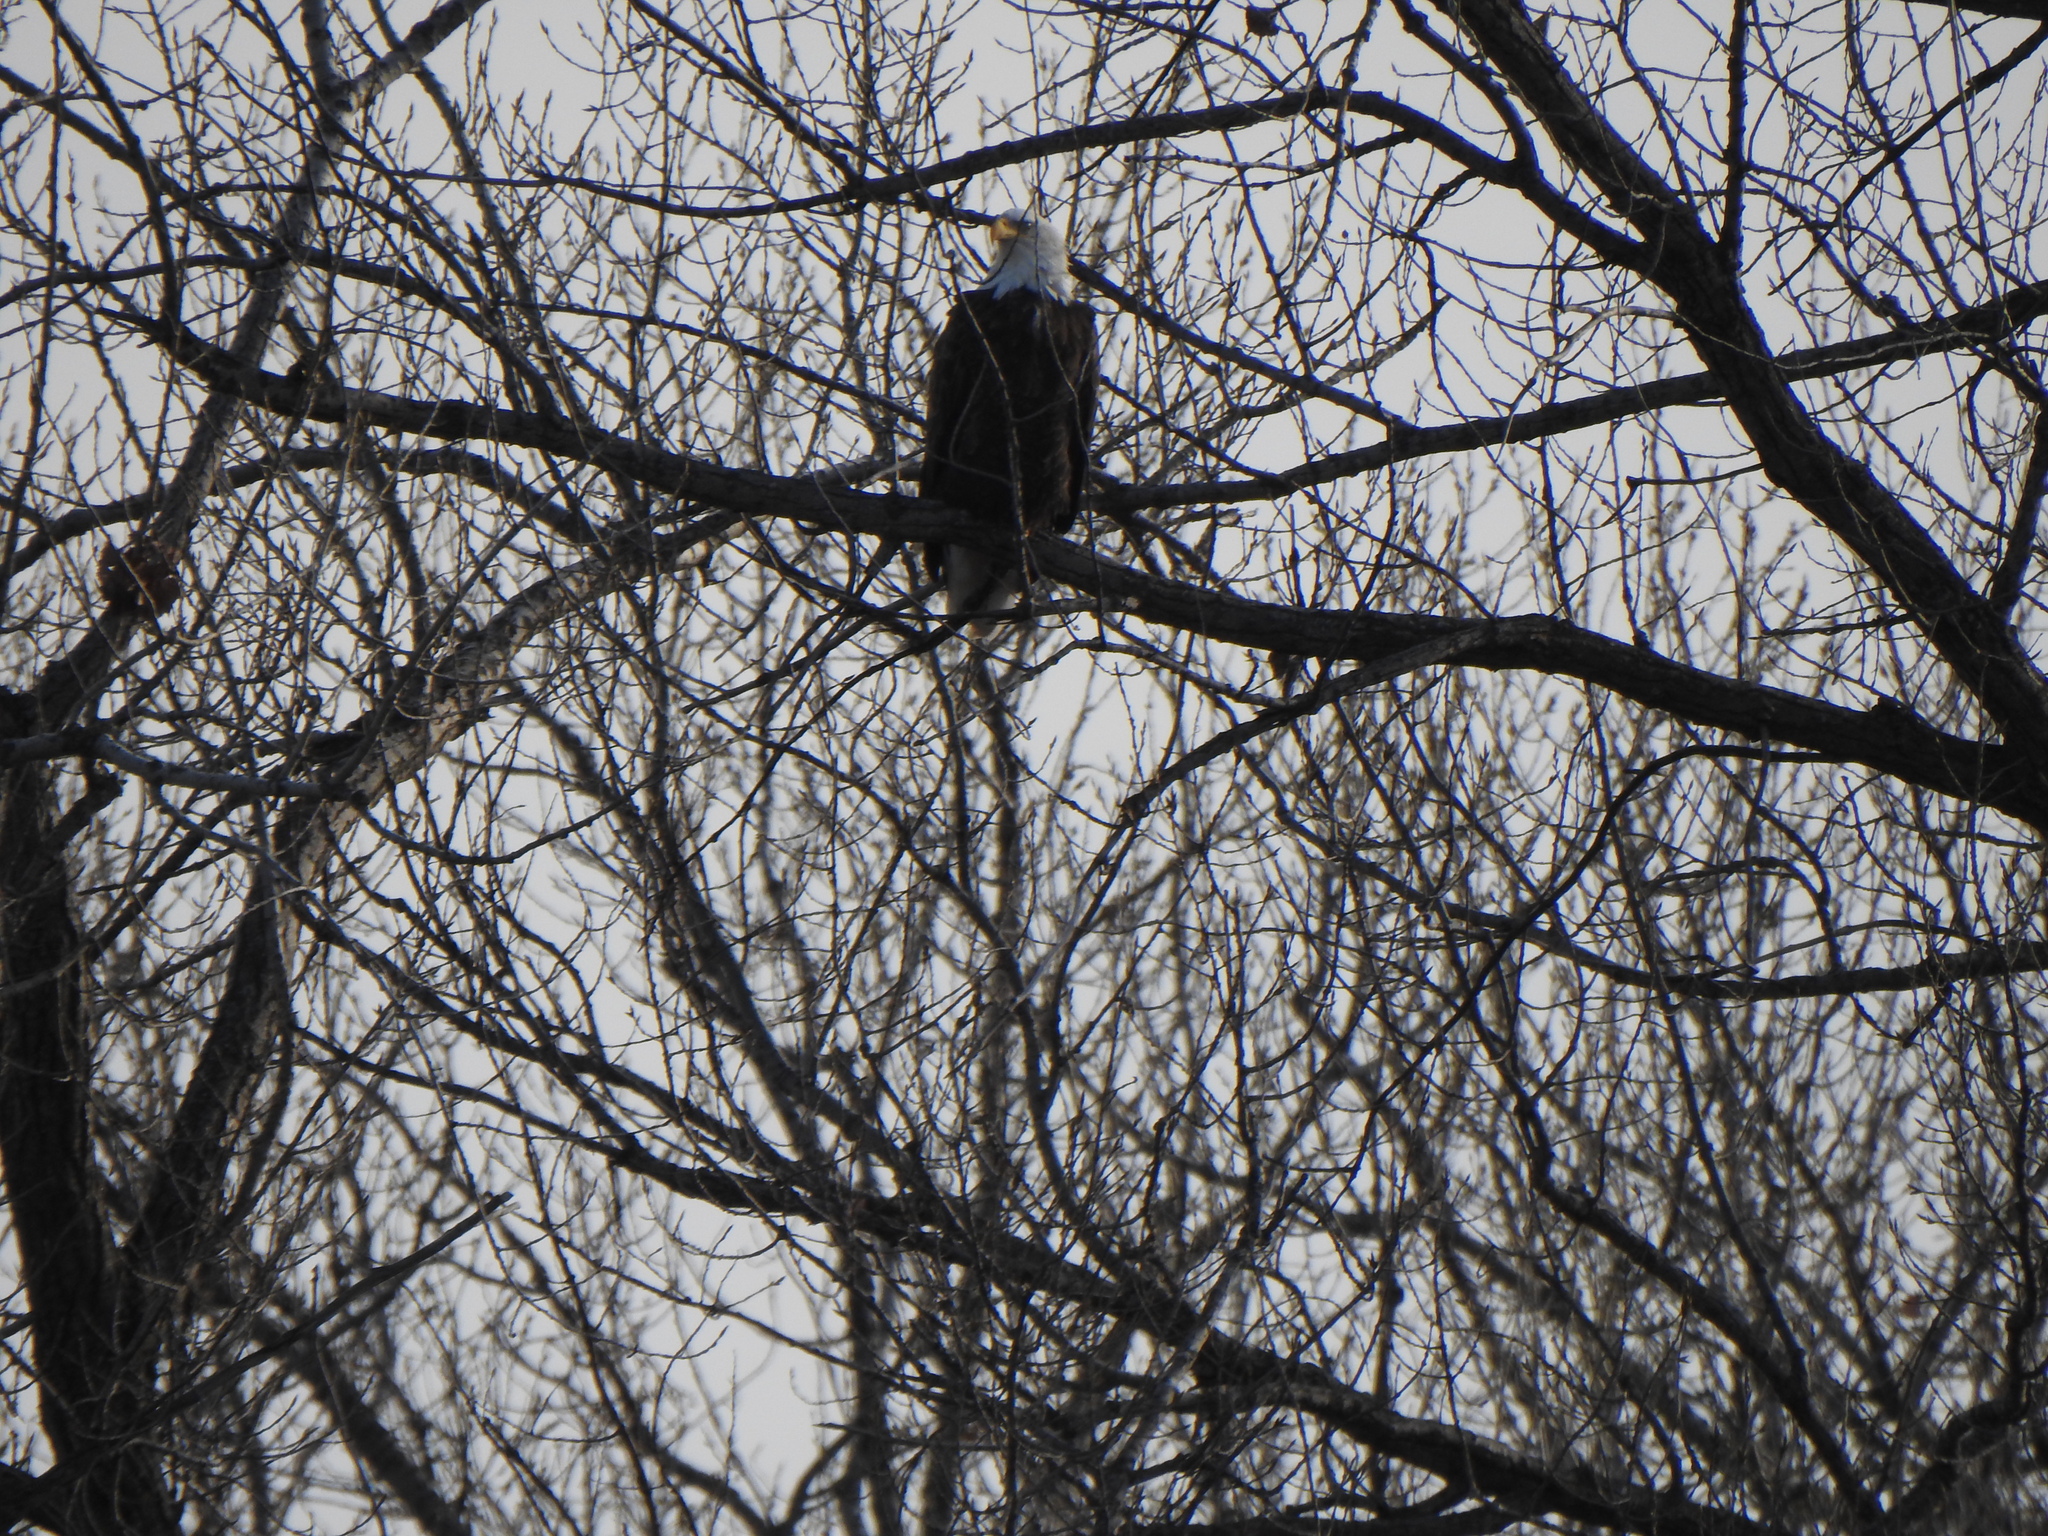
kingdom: Animalia
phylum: Chordata
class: Aves
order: Accipitriformes
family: Accipitridae
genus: Haliaeetus
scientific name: Haliaeetus leucocephalus
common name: Bald eagle
